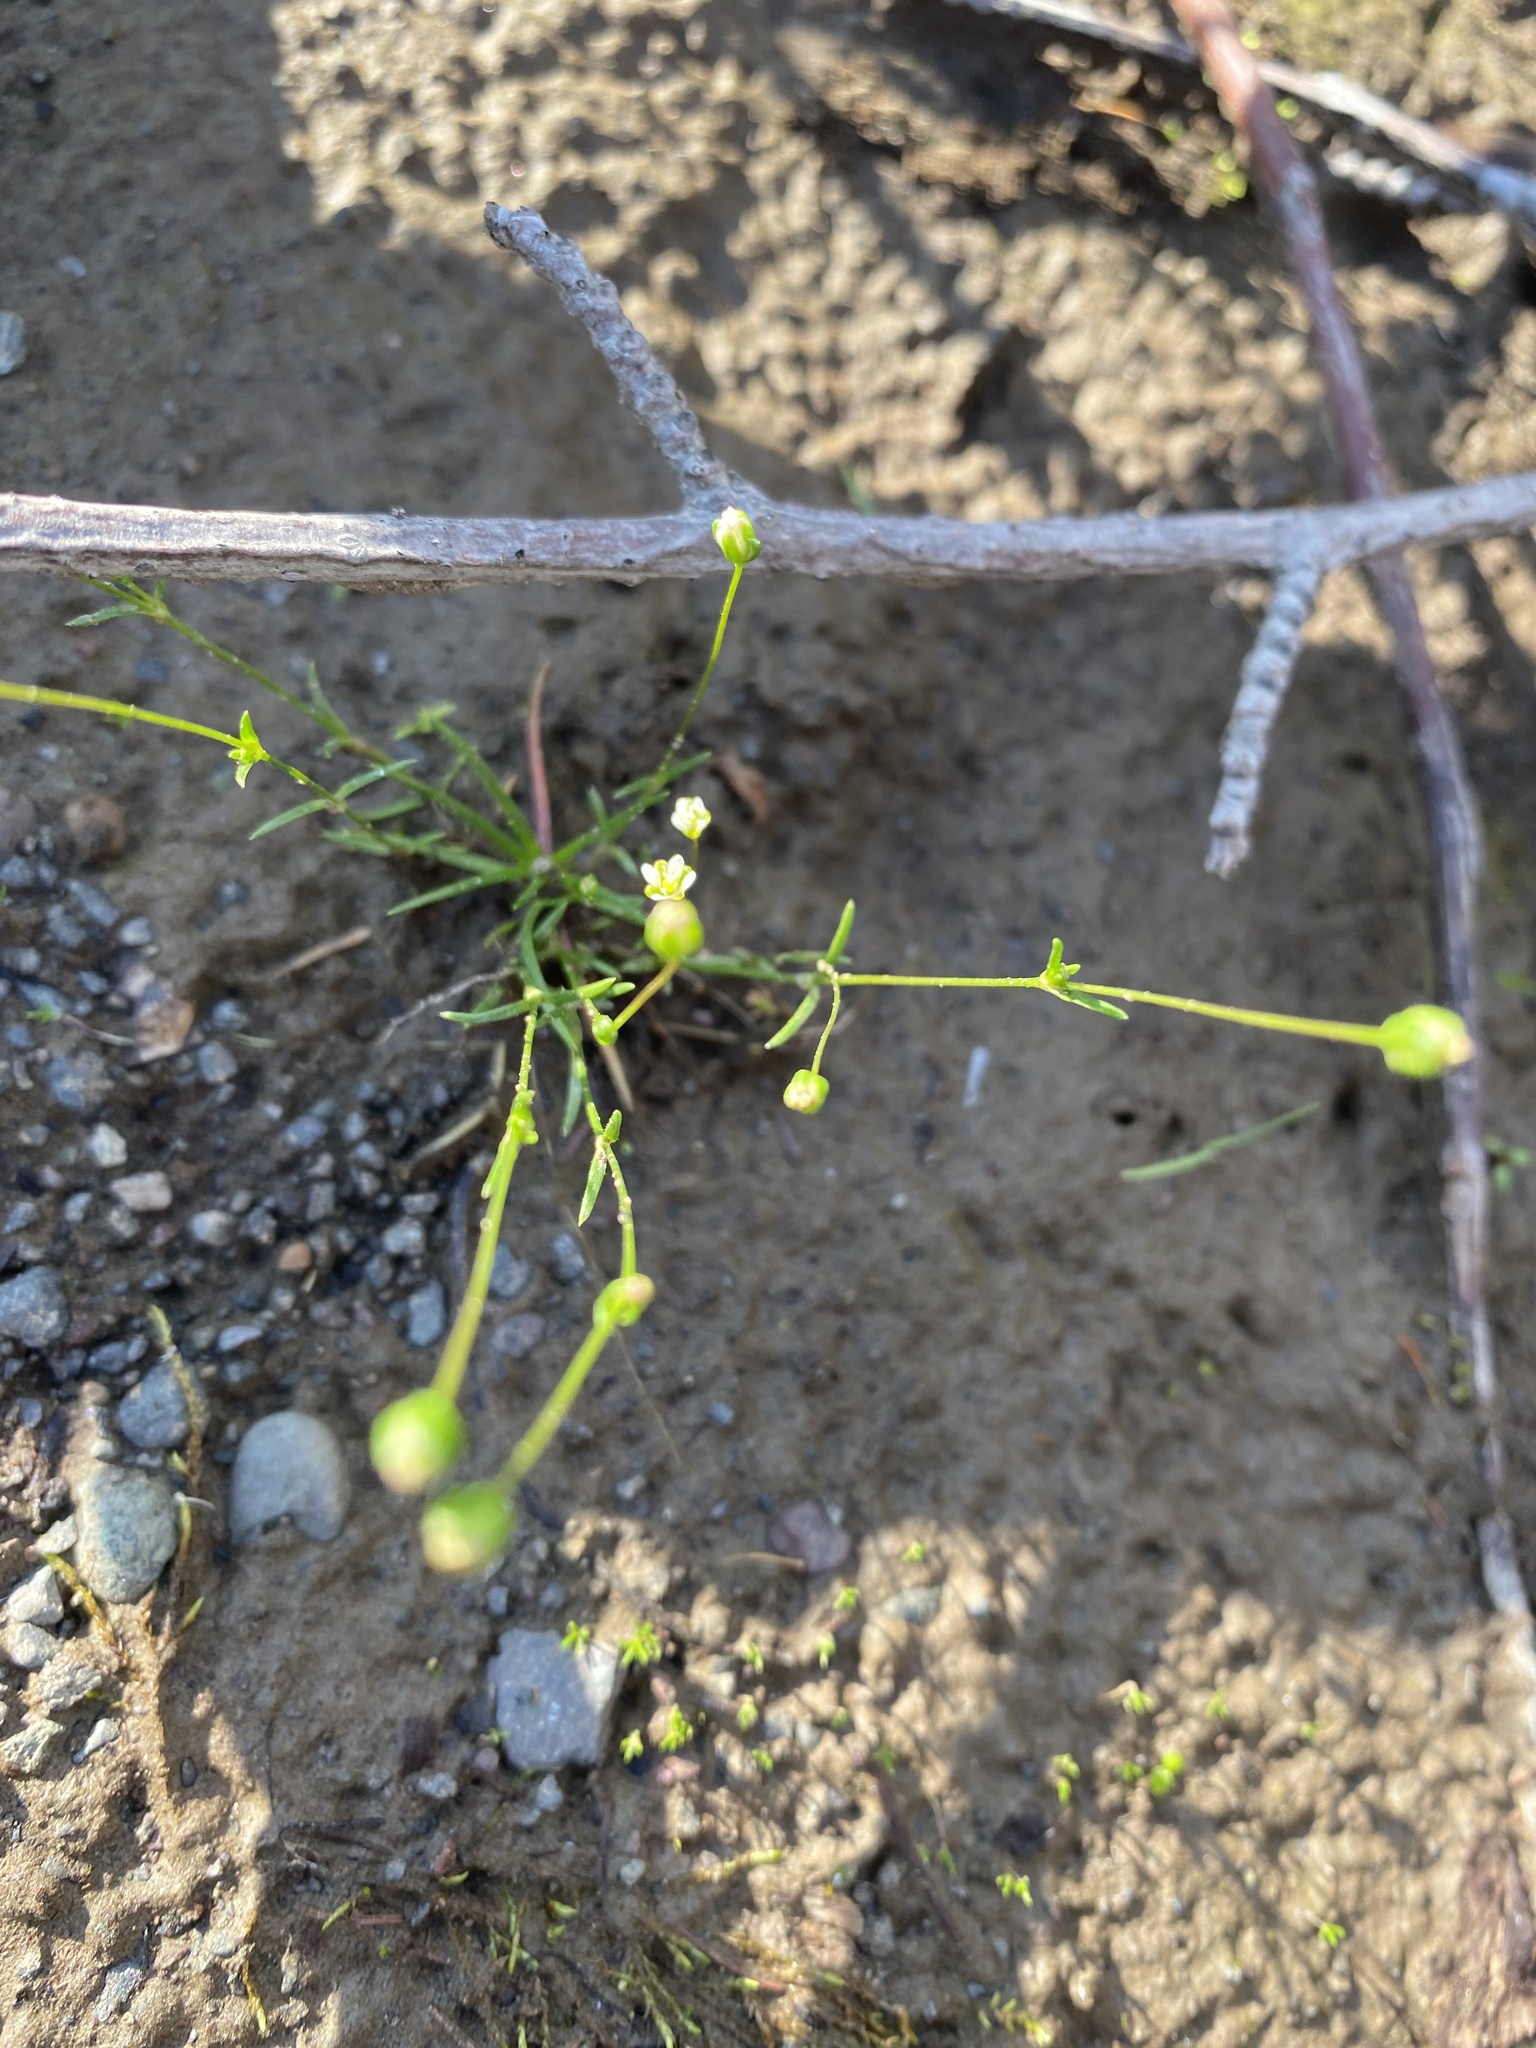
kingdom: Plantae
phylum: Tracheophyta
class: Magnoliopsida
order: Caryophyllales
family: Caryophyllaceae
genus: Sagina
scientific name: Sagina procumbens
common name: Procumbent pearlwort
